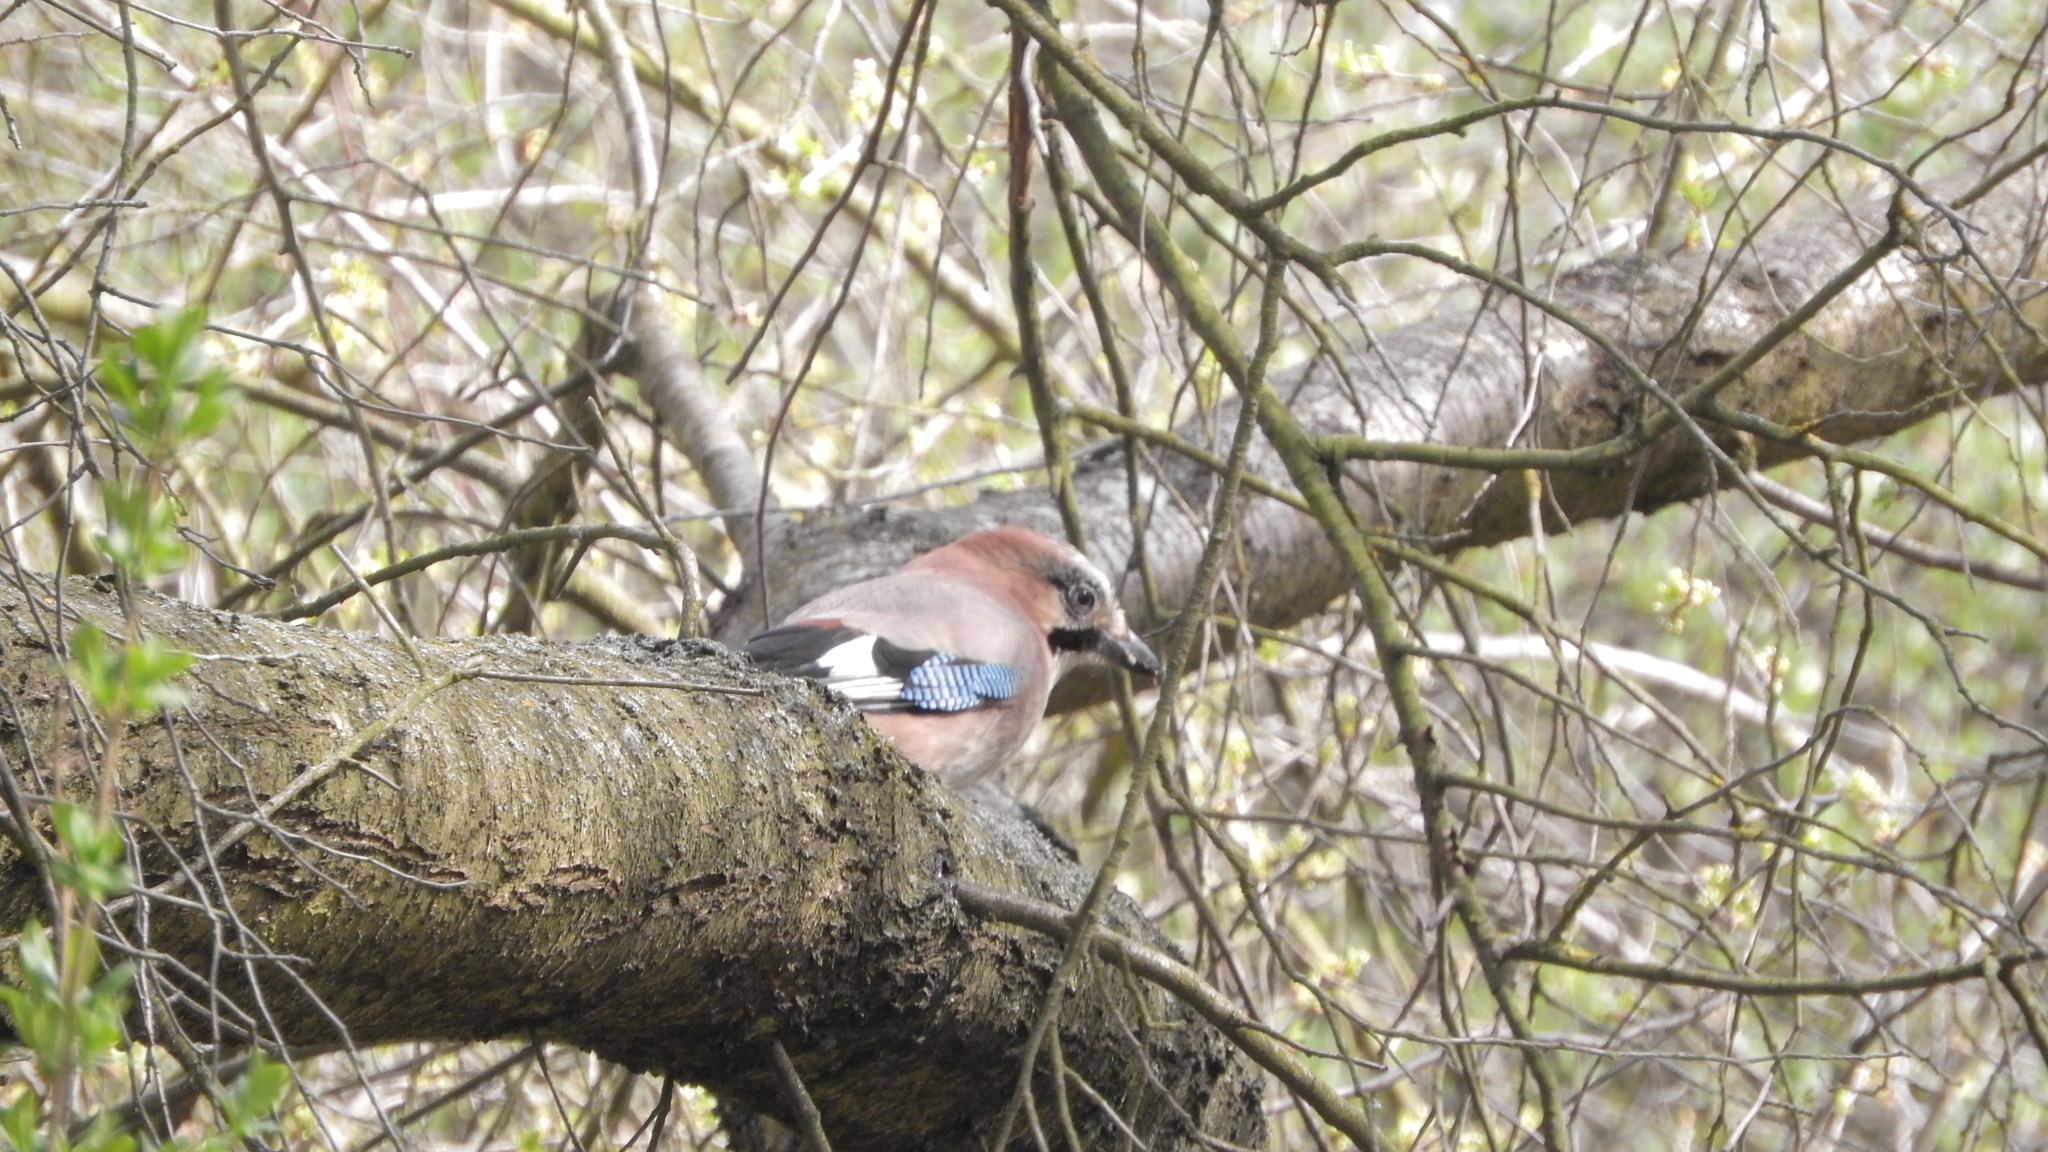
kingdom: Animalia
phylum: Chordata
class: Aves
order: Passeriformes
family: Corvidae
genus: Garrulus
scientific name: Garrulus glandarius
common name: Eurasian jay
